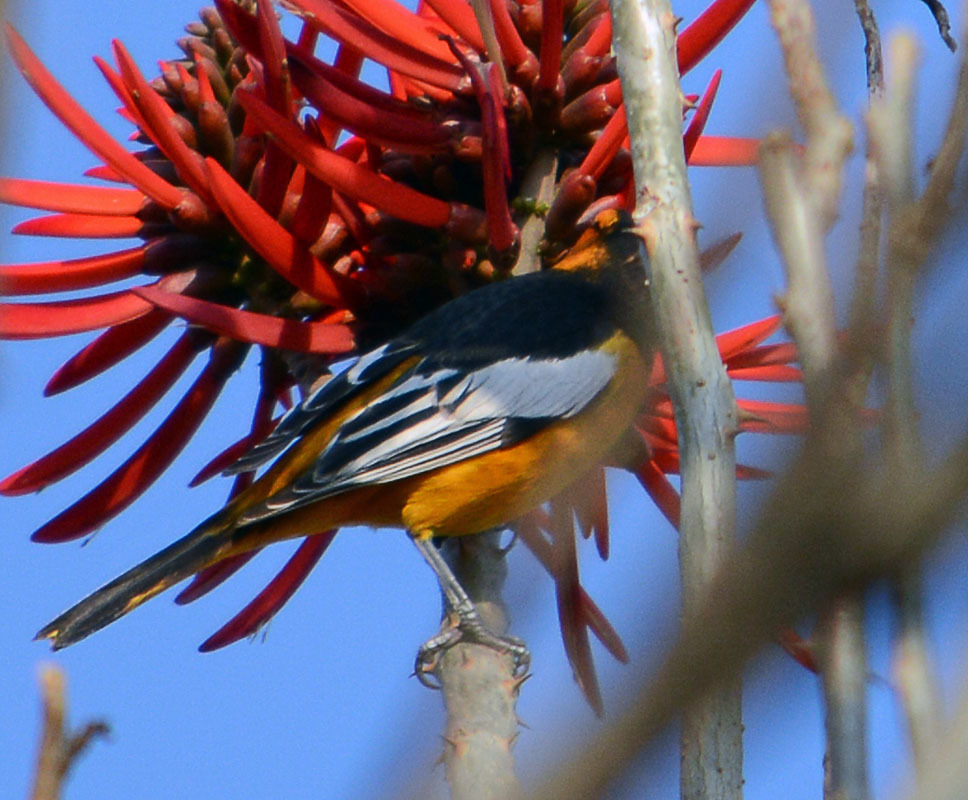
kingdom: Animalia
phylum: Chordata
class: Aves
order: Passeriformes
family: Icteridae
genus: Icterus
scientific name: Icterus bullockii
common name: Bullock's oriole
